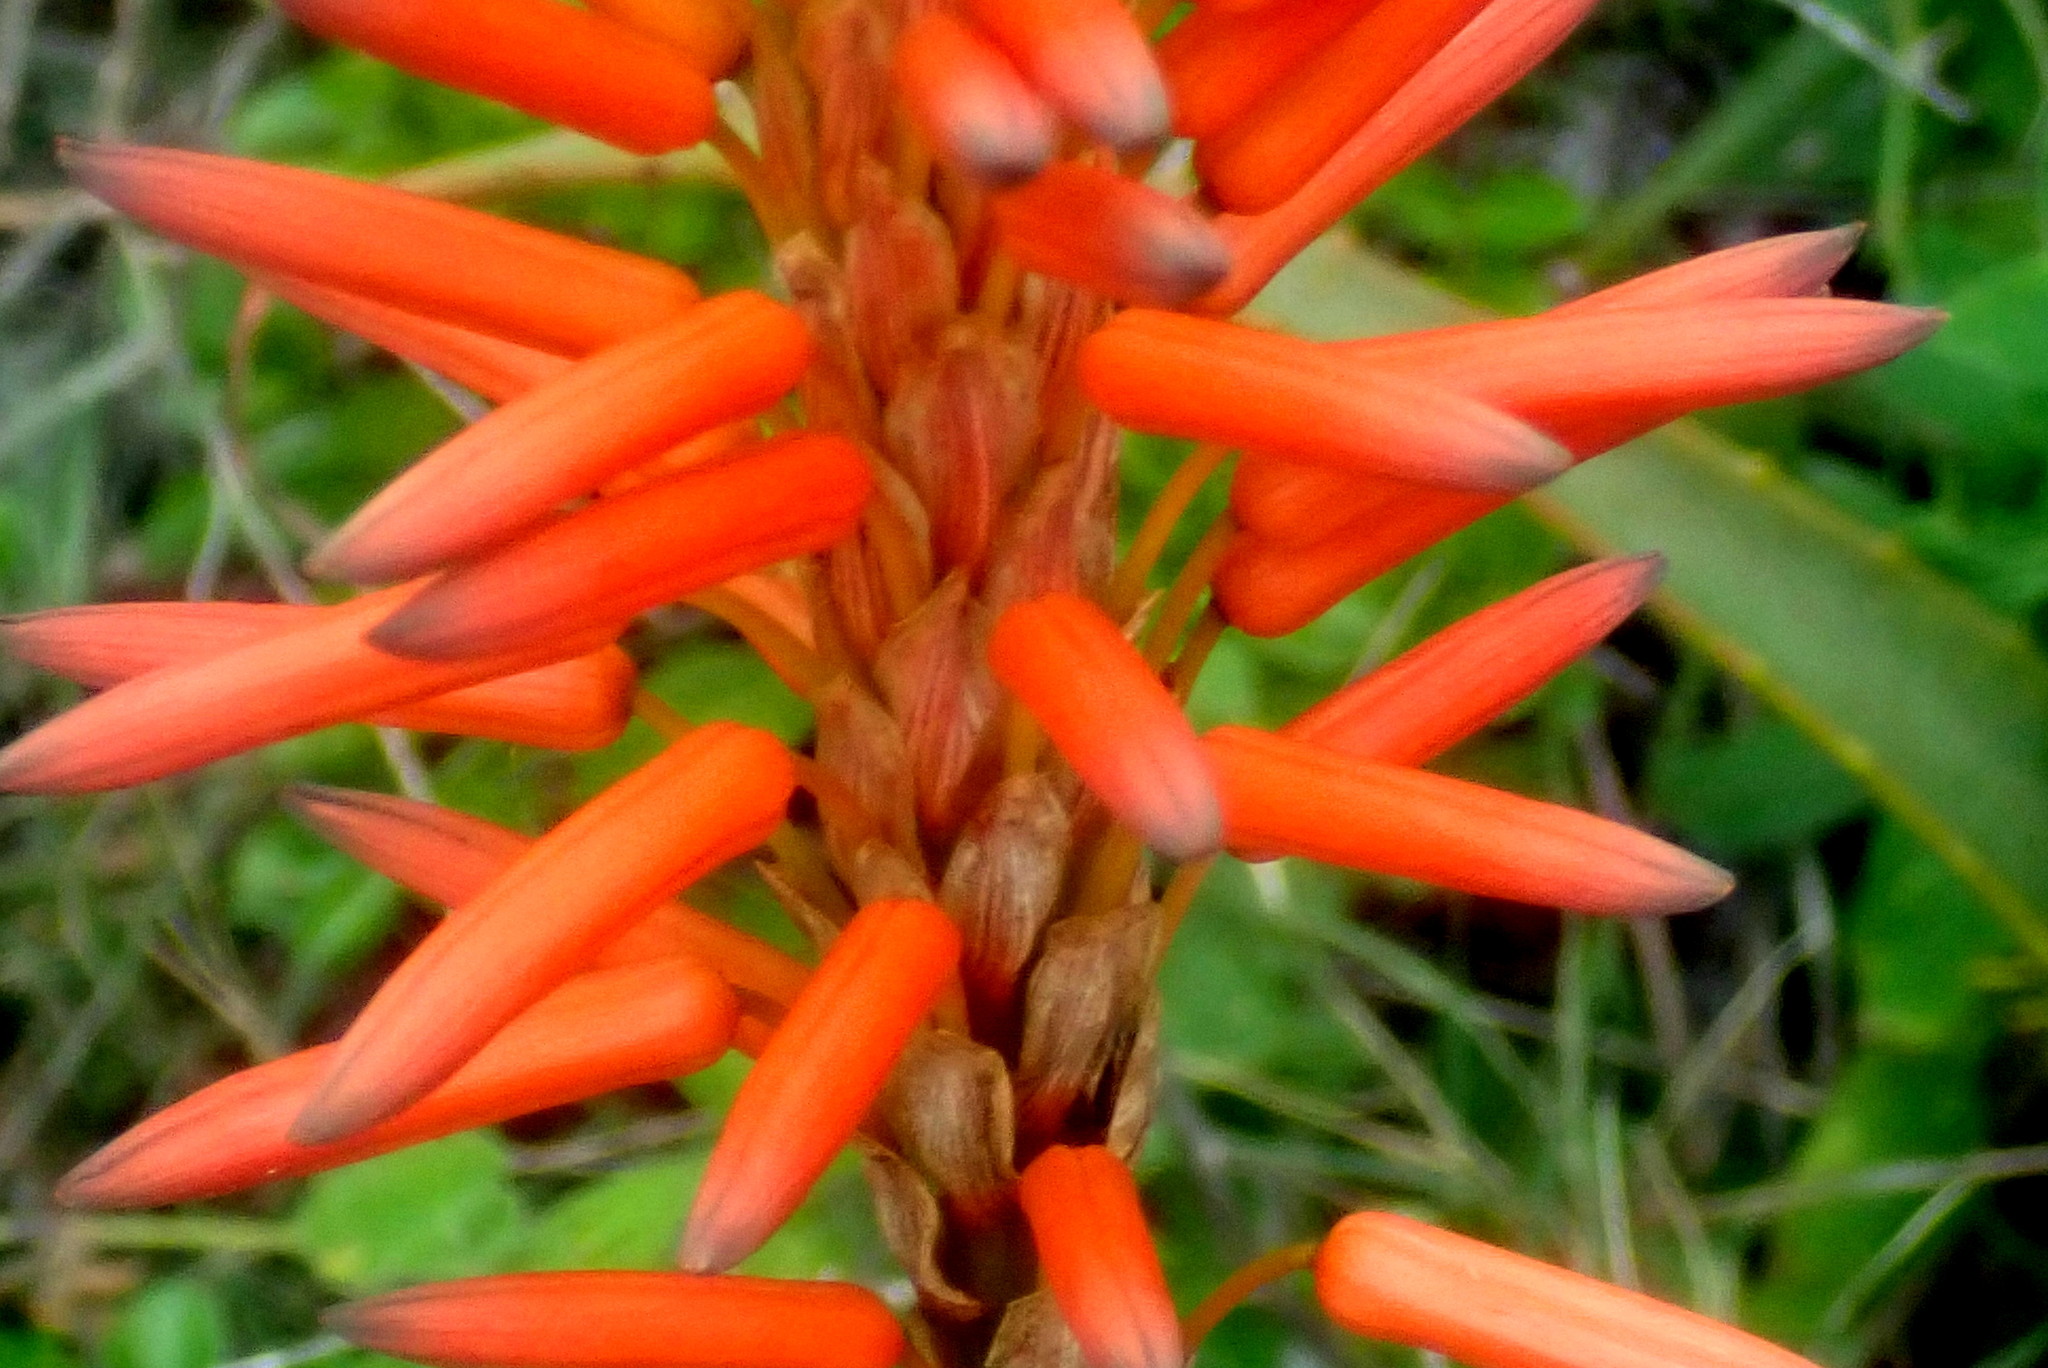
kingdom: Plantae
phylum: Tracheophyta
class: Liliopsida
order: Asparagales
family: Asphodelaceae
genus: Aloe
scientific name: Aloe arborescens
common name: Candelabra aloe
